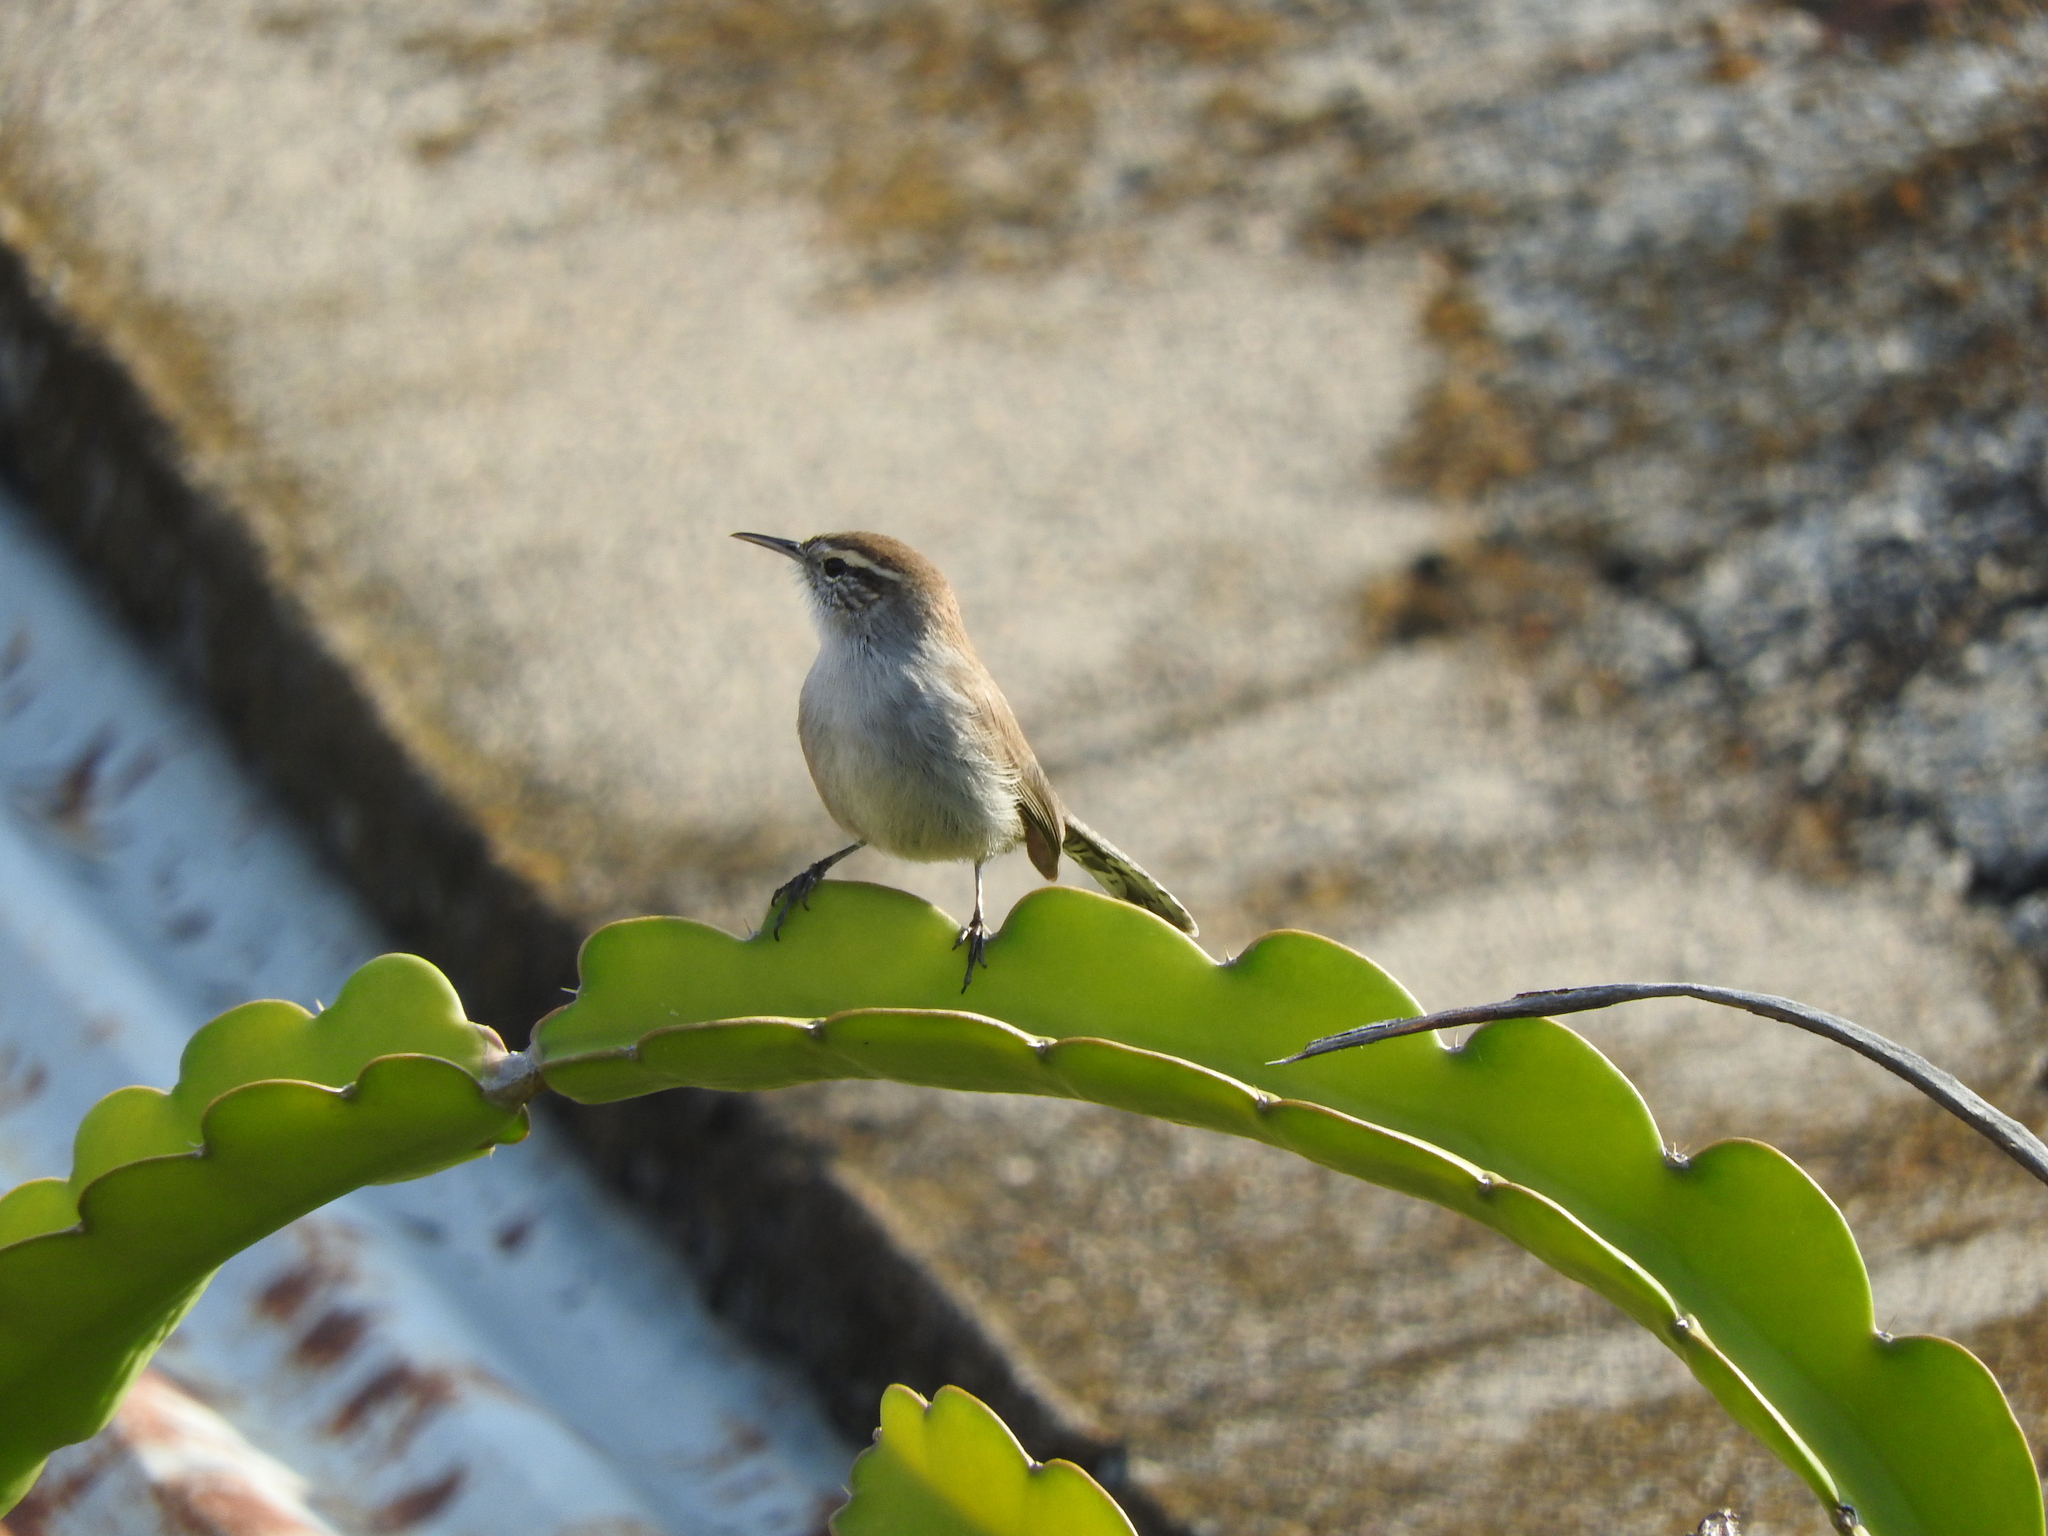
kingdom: Animalia
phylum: Chordata
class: Aves
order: Passeriformes
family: Troglodytidae
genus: Thryomanes
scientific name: Thryomanes bewickii
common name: Bewick's wren
